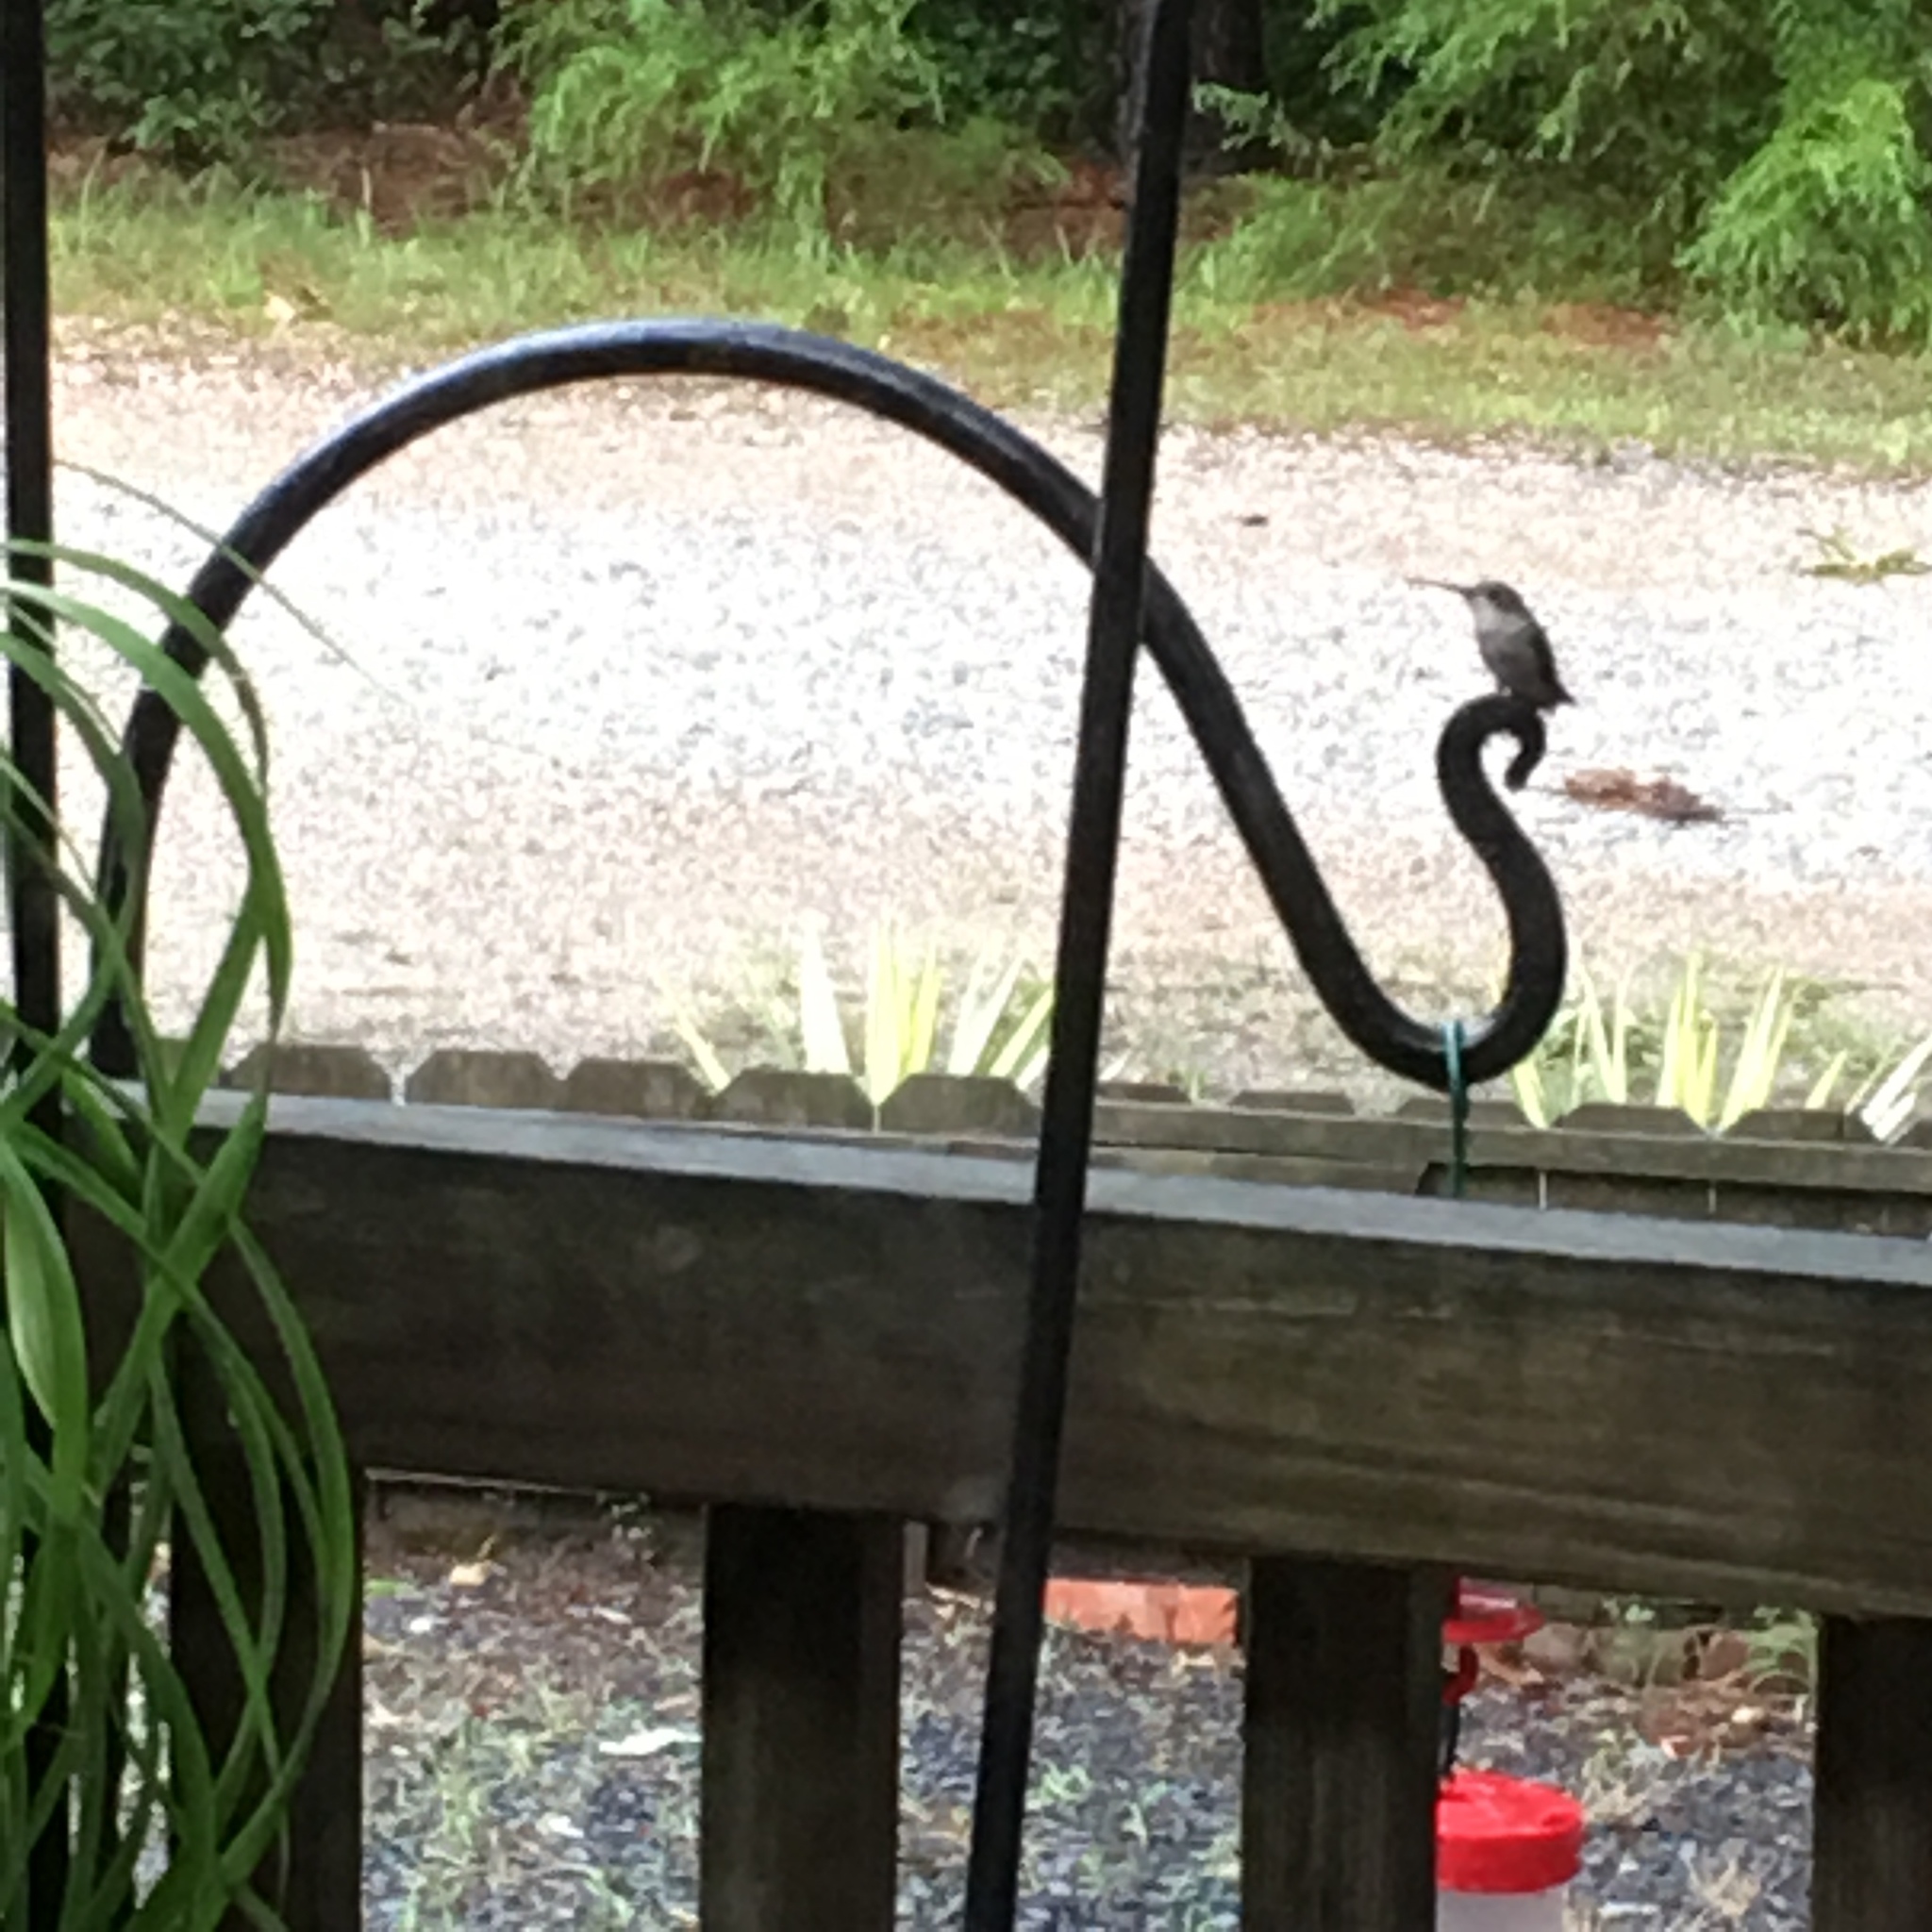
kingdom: Animalia
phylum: Chordata
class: Aves
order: Apodiformes
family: Trochilidae
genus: Archilochus
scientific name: Archilochus colubris
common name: Ruby-throated hummingbird
